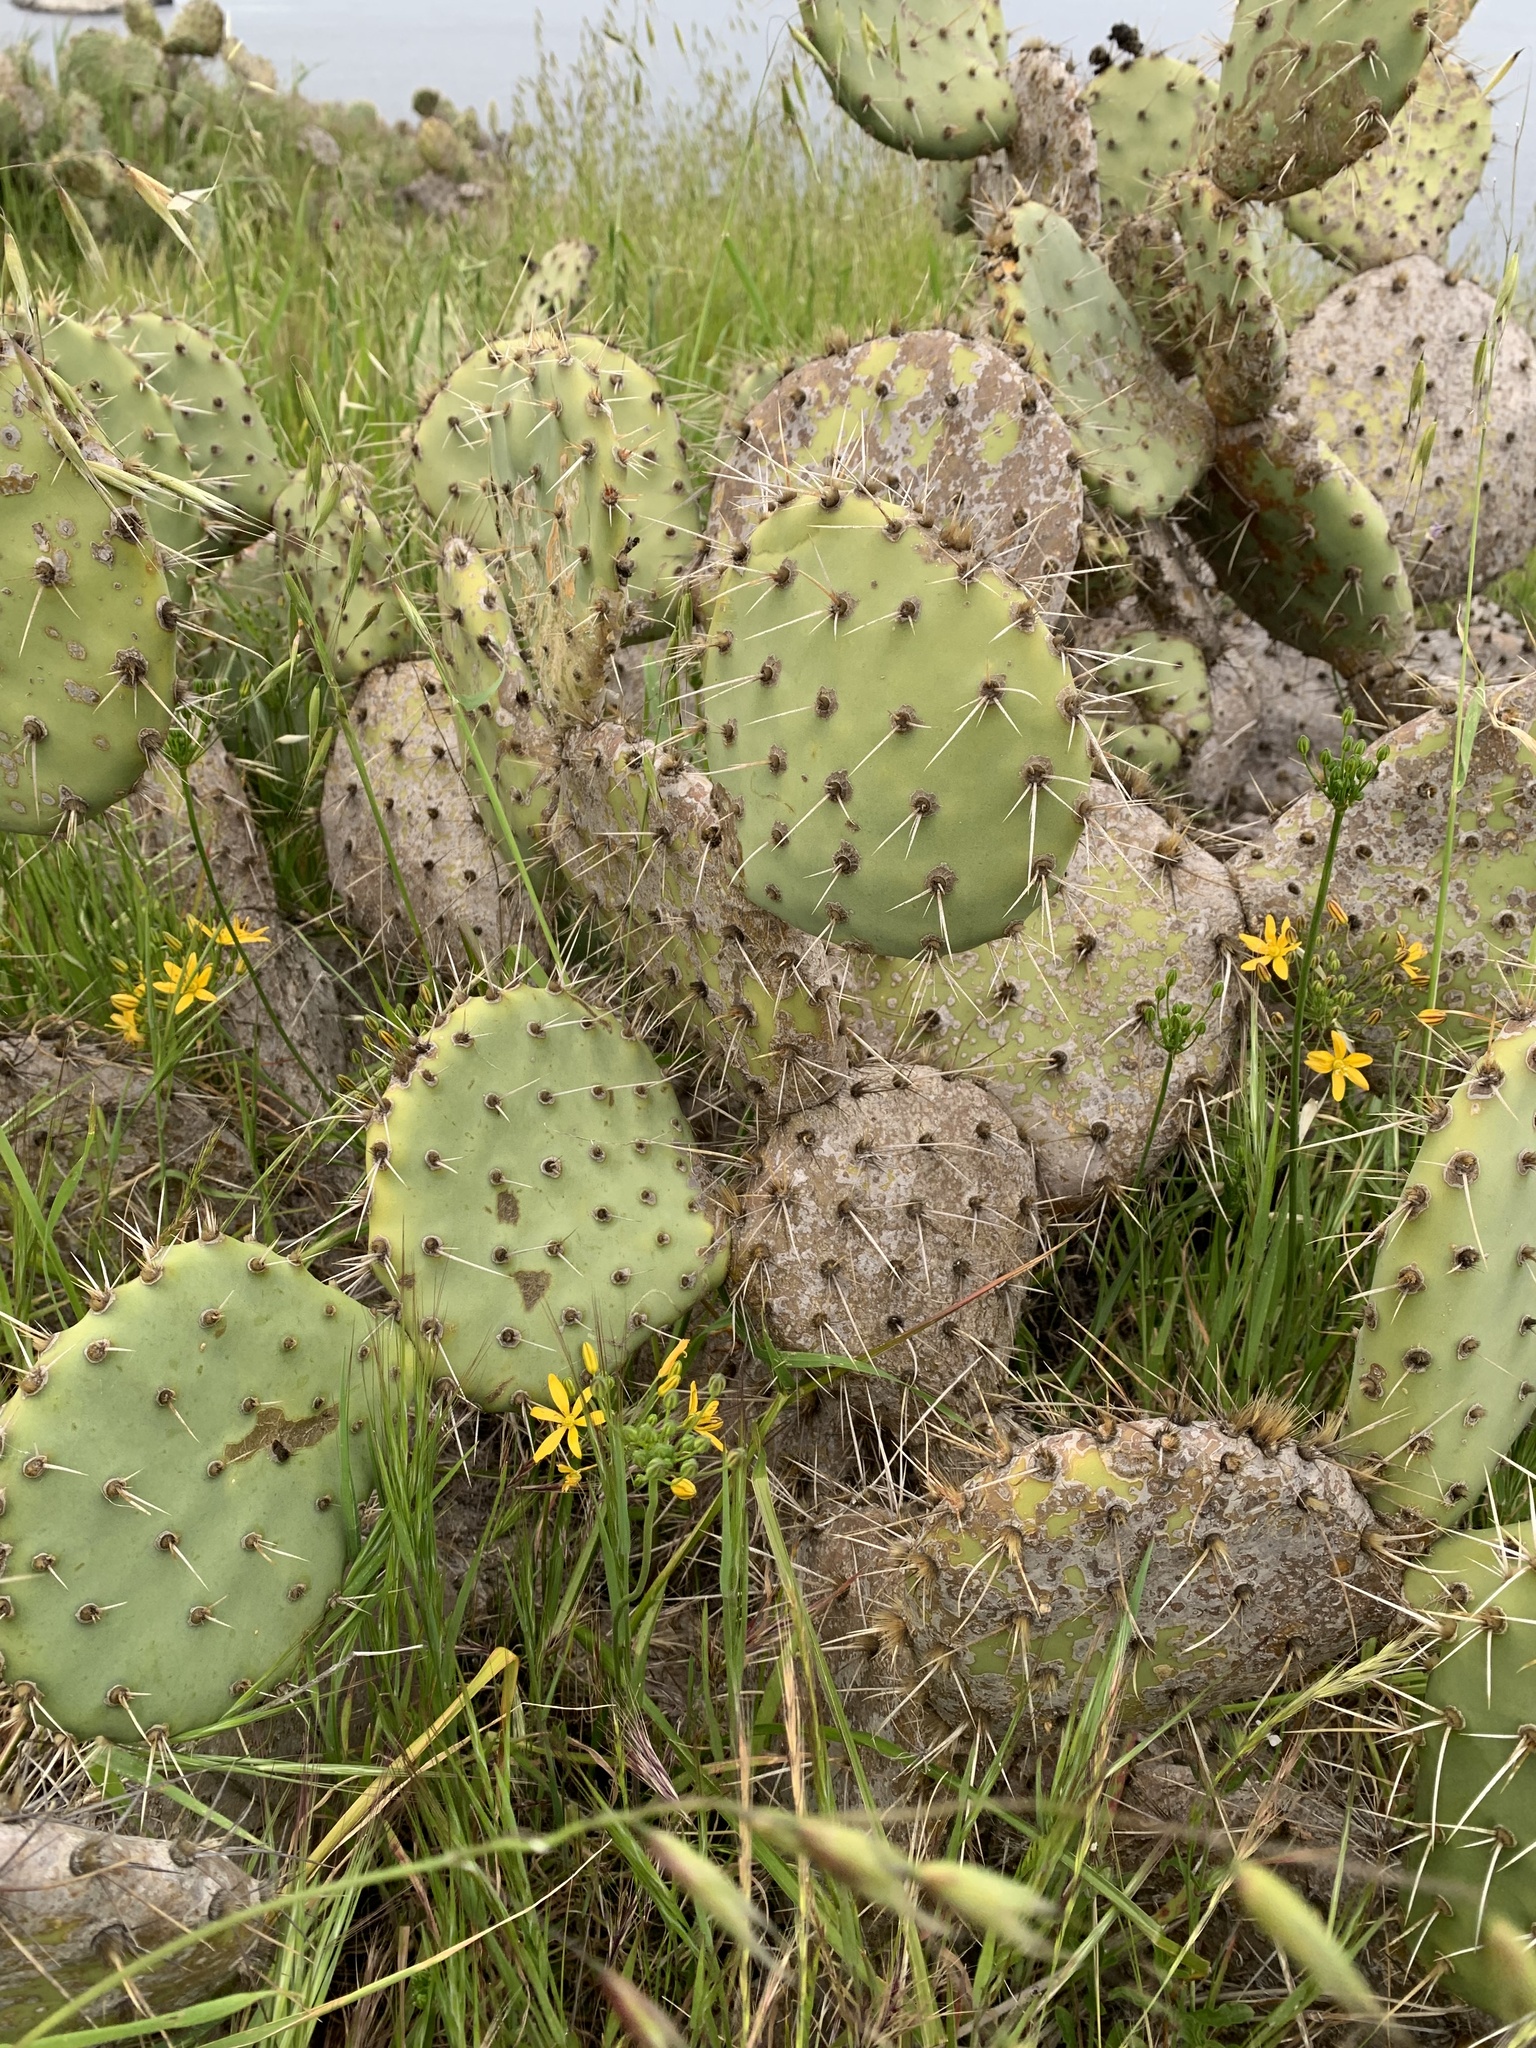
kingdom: Plantae
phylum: Tracheophyta
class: Liliopsida
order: Asparagales
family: Asparagaceae
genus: Bloomeria
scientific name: Bloomeria crocea
